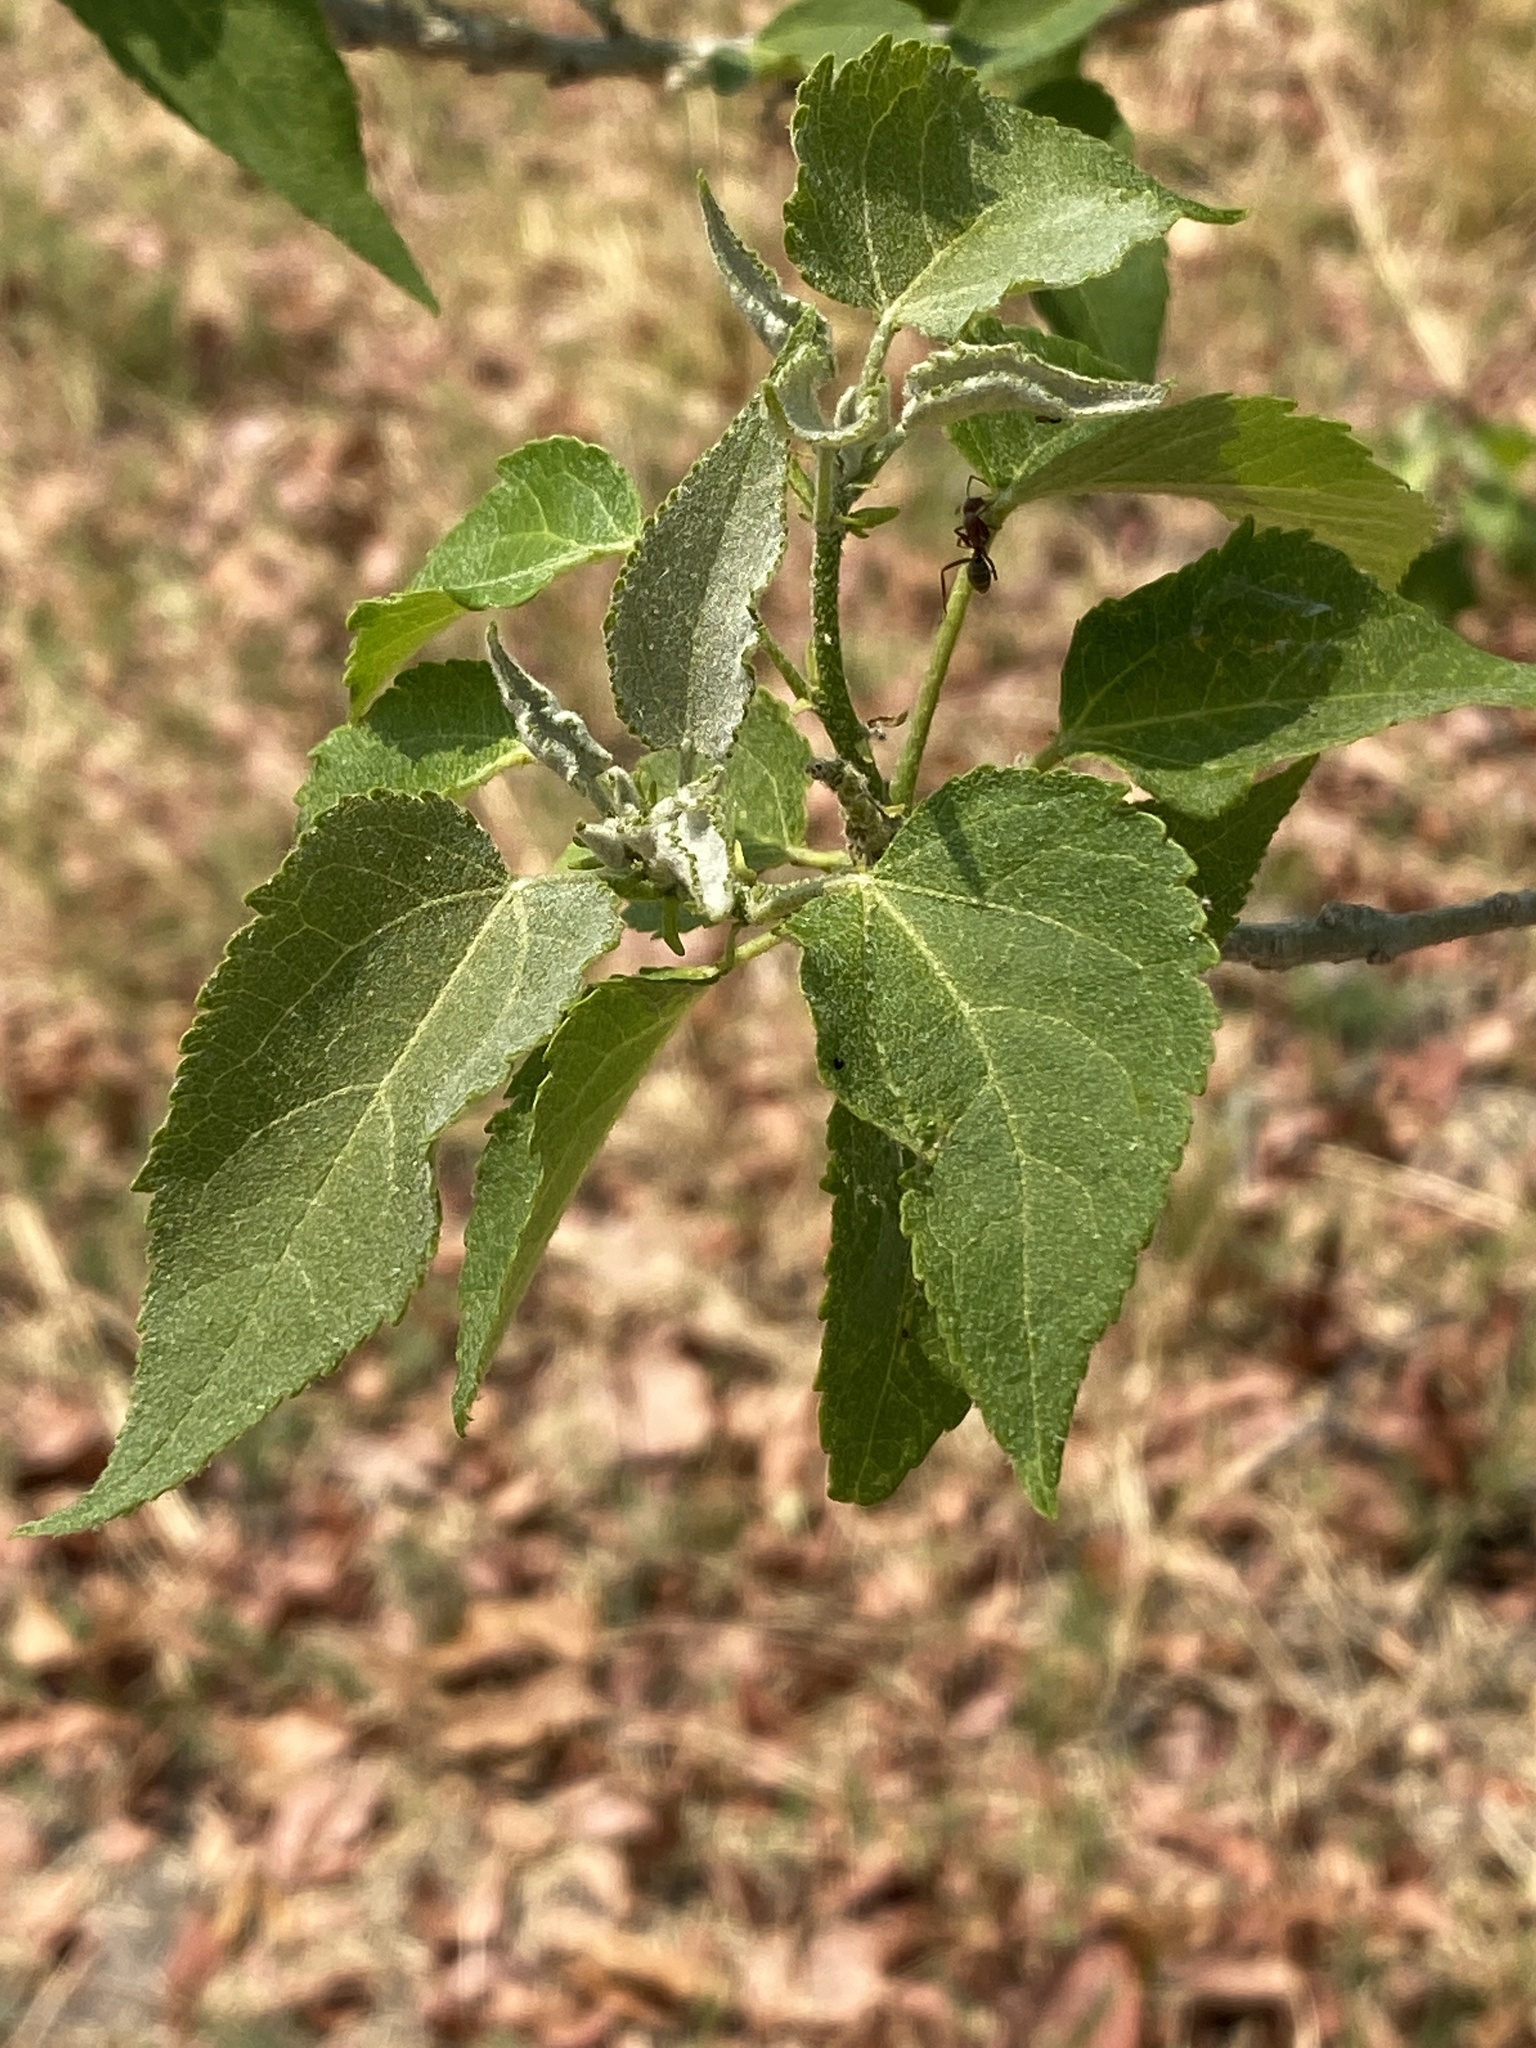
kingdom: Plantae
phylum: Tracheophyta
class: Magnoliopsida
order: Malpighiales
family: Euphorbiaceae
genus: Croton
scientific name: Croton megalobotrys
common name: Large fever berry
